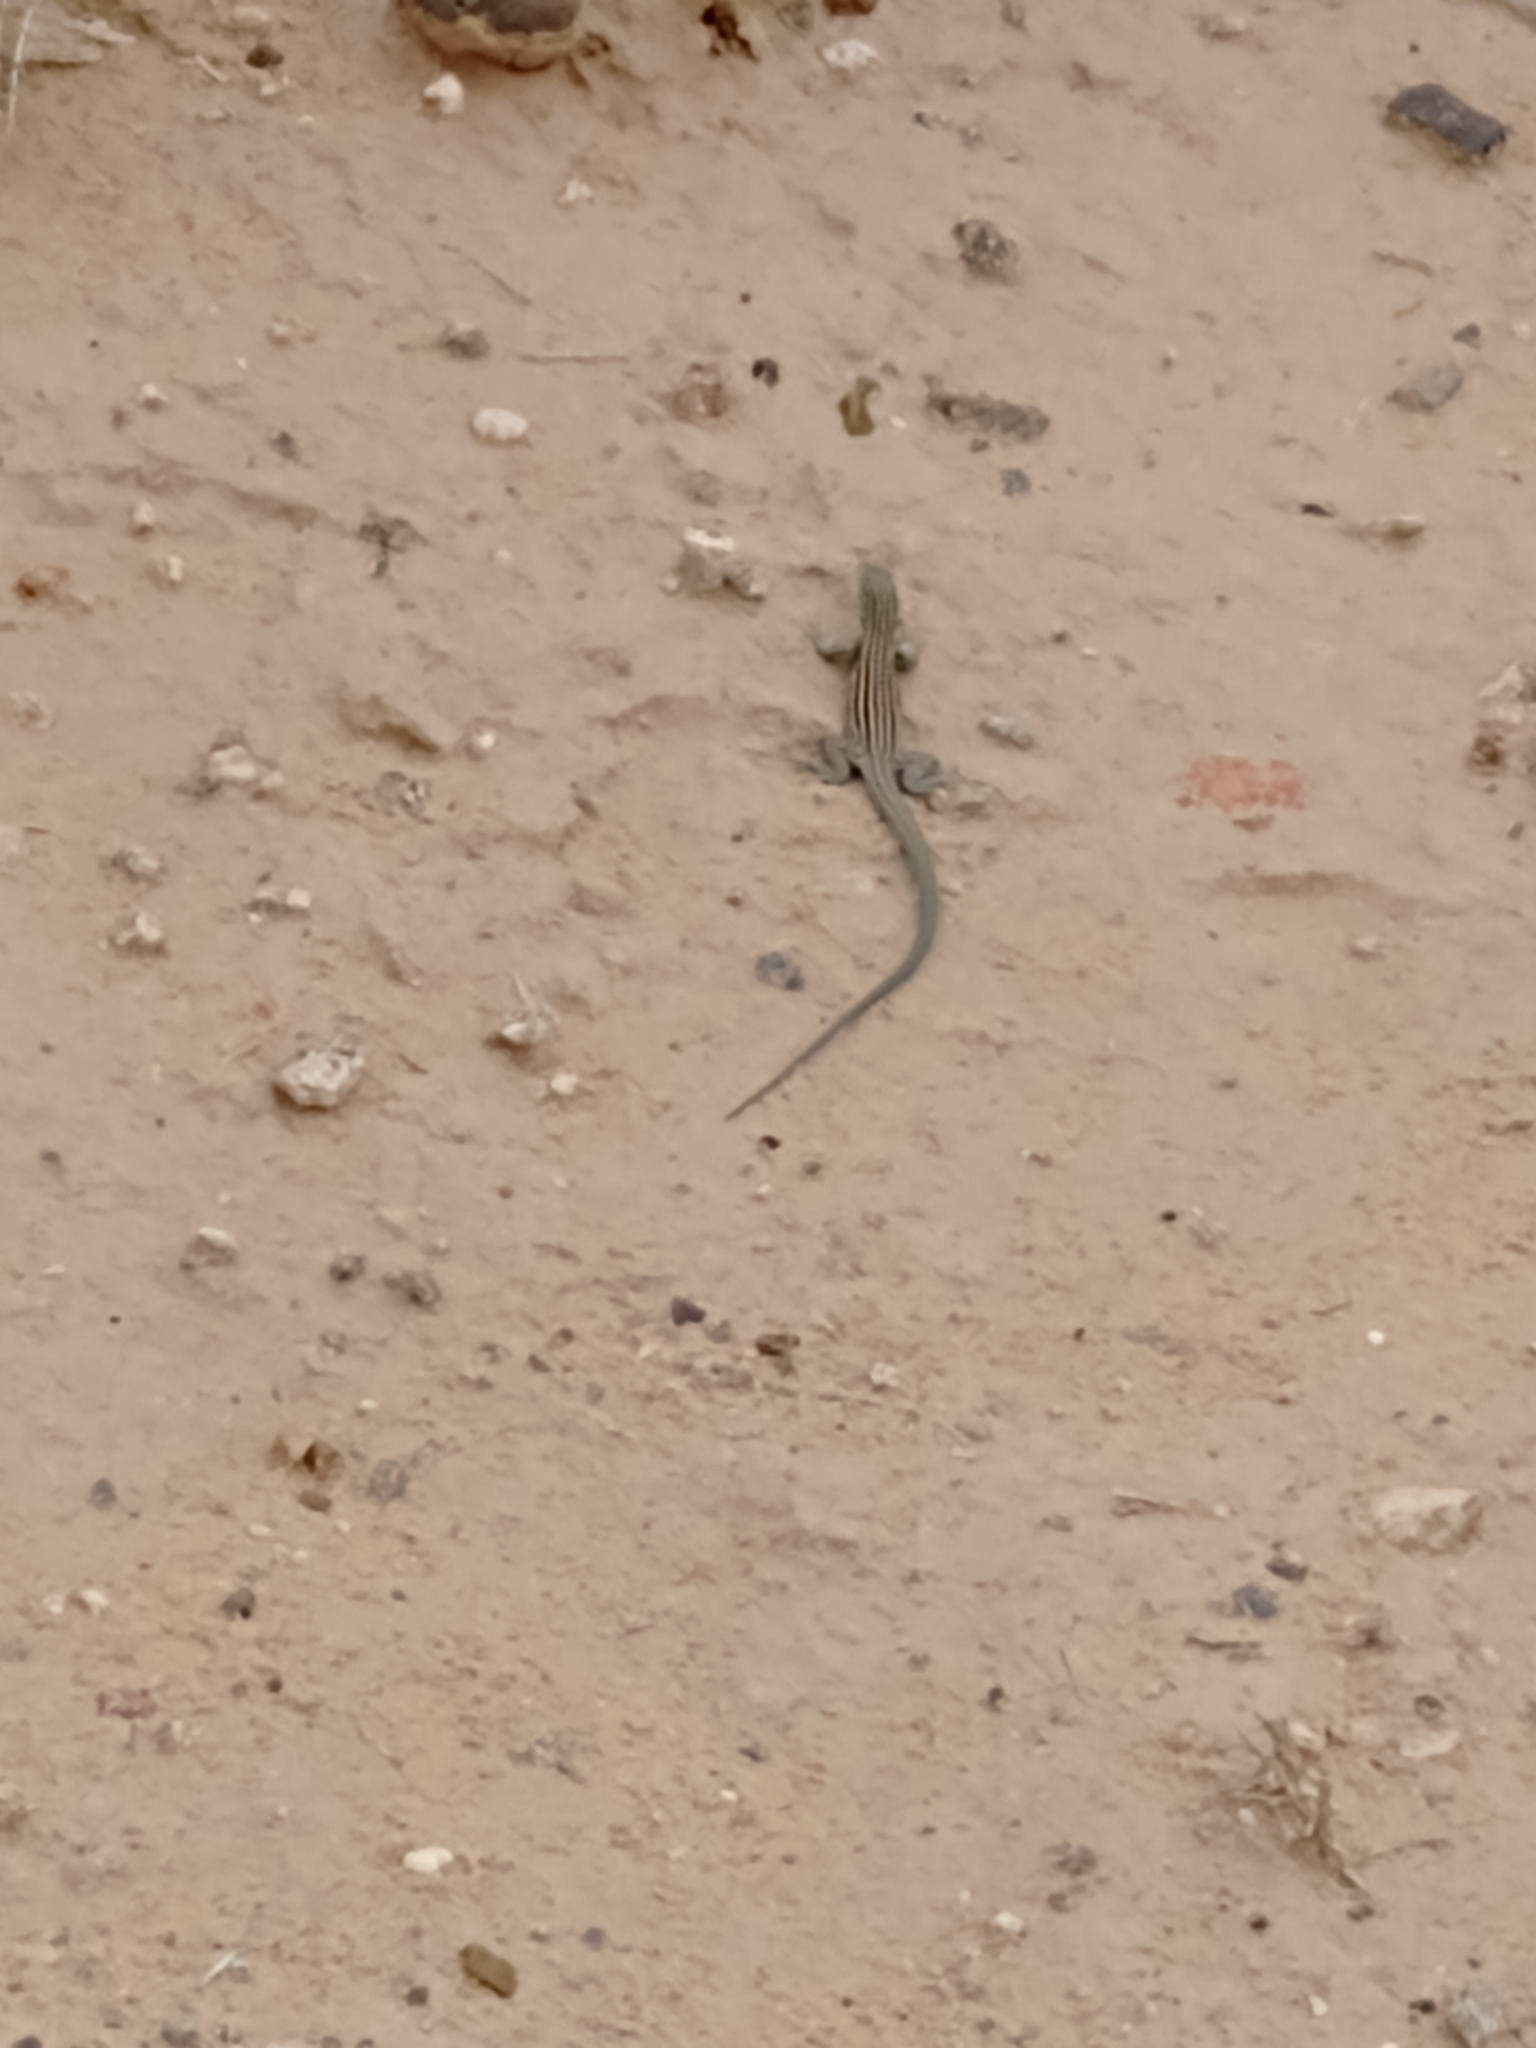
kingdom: Animalia
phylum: Chordata
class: Squamata
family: Teiidae
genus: Aspidoscelis
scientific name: Aspidoscelis neomexicanus
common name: New mexico whiptail
